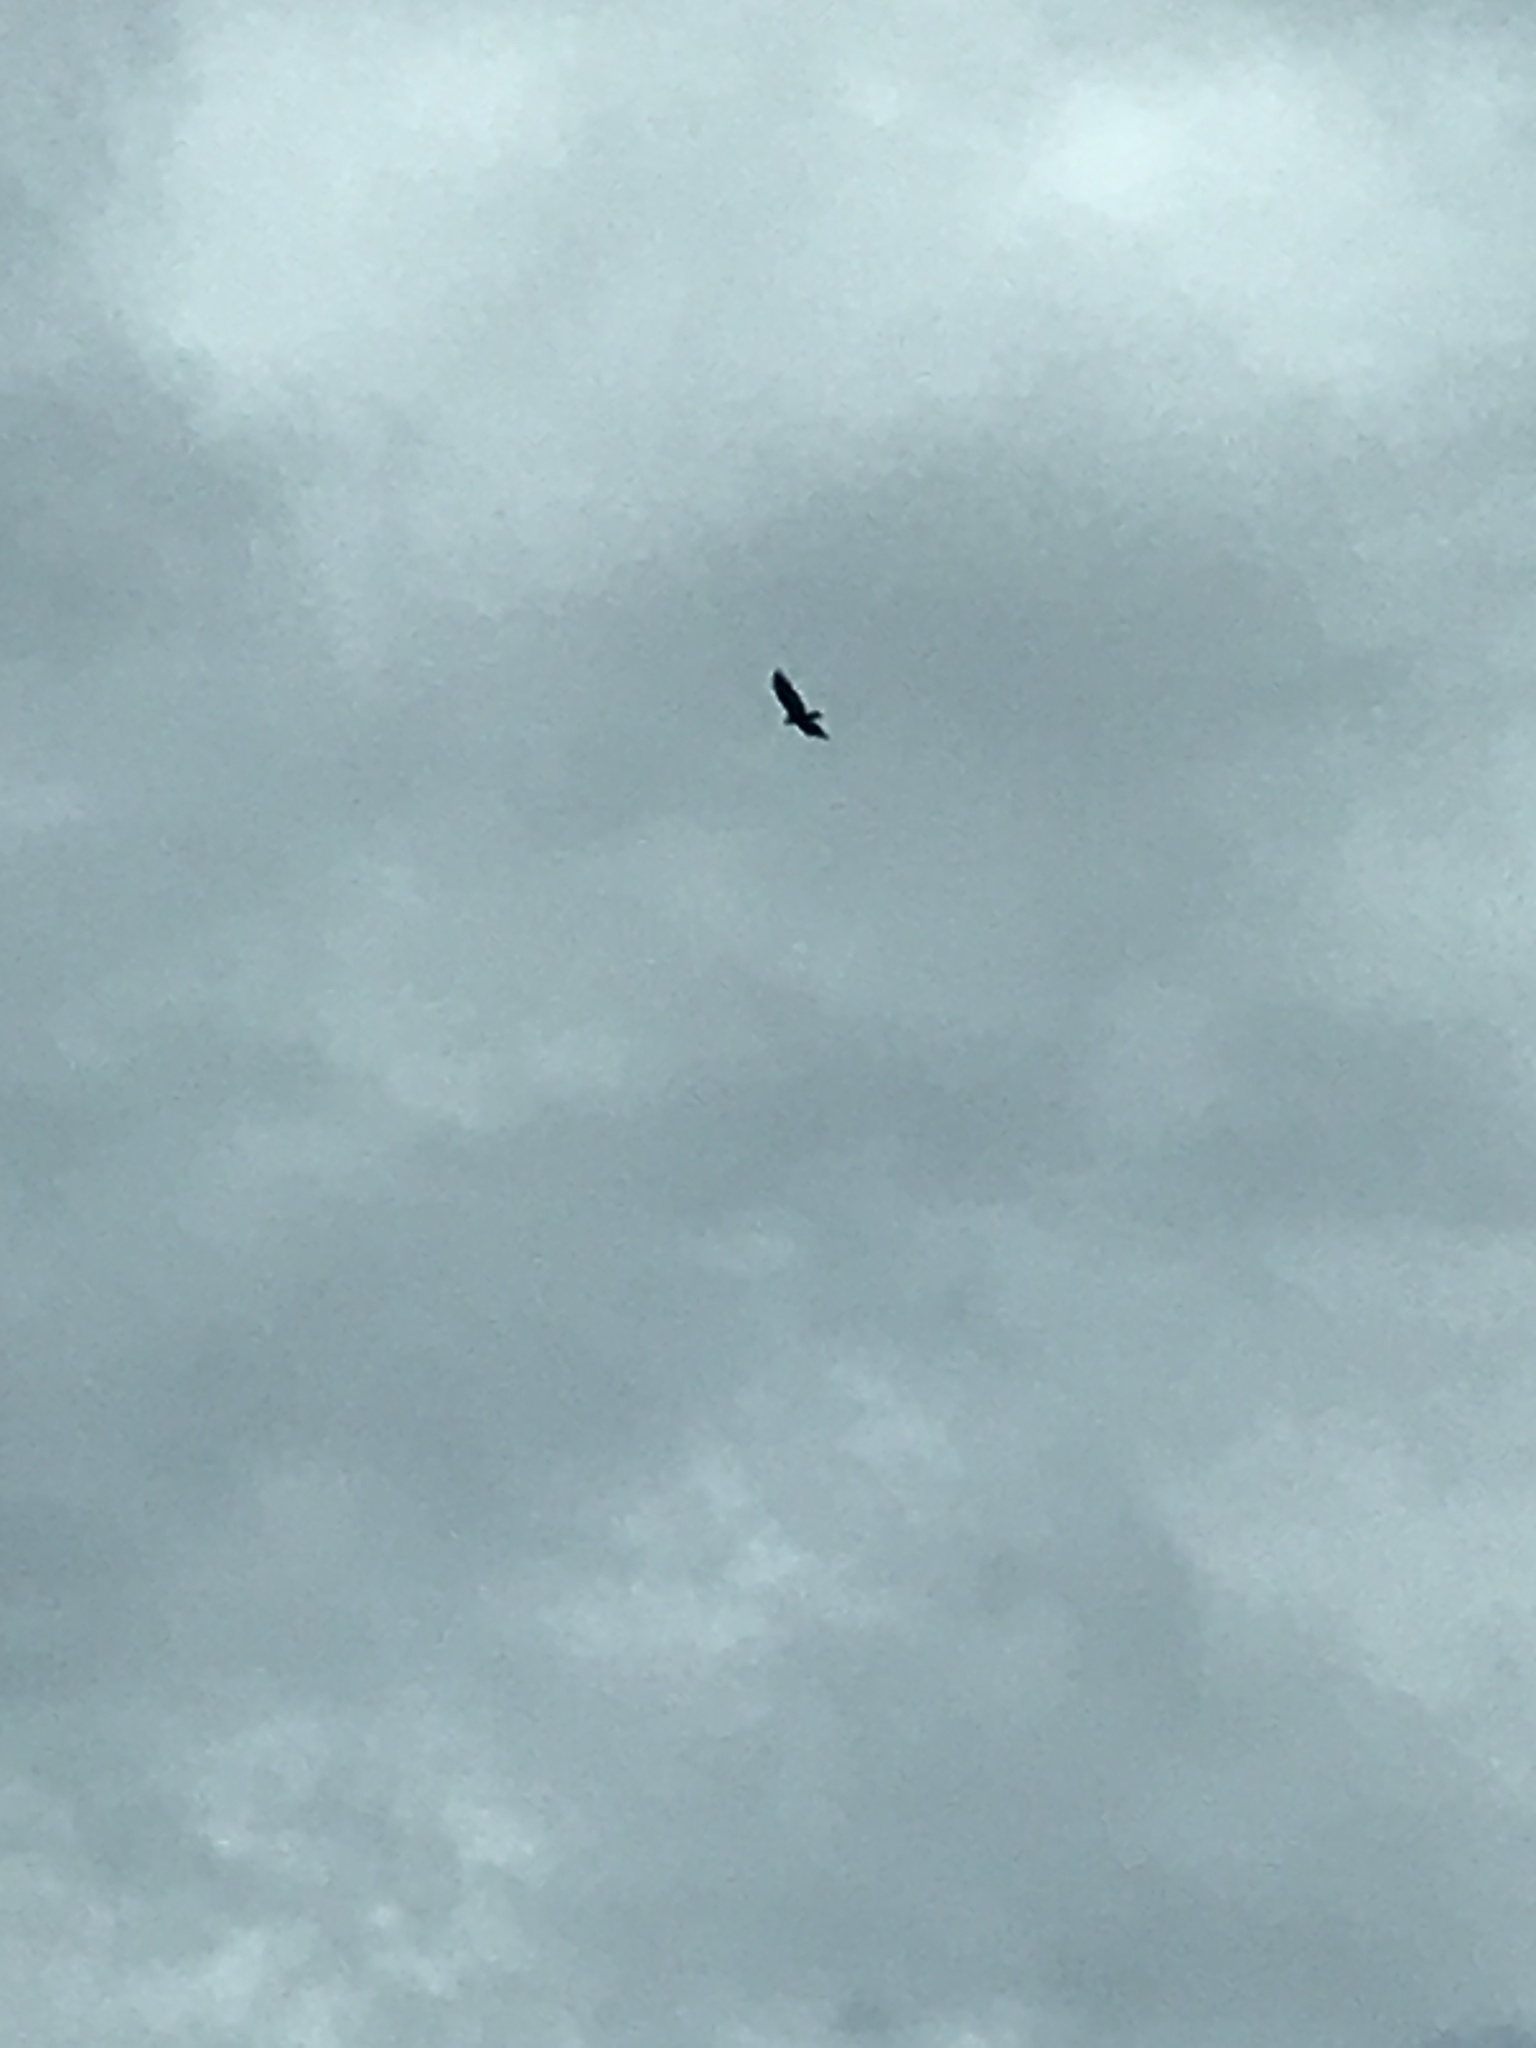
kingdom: Animalia
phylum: Chordata
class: Aves
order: Accipitriformes
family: Cathartidae
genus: Cathartes
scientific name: Cathartes aura
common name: Turkey vulture
